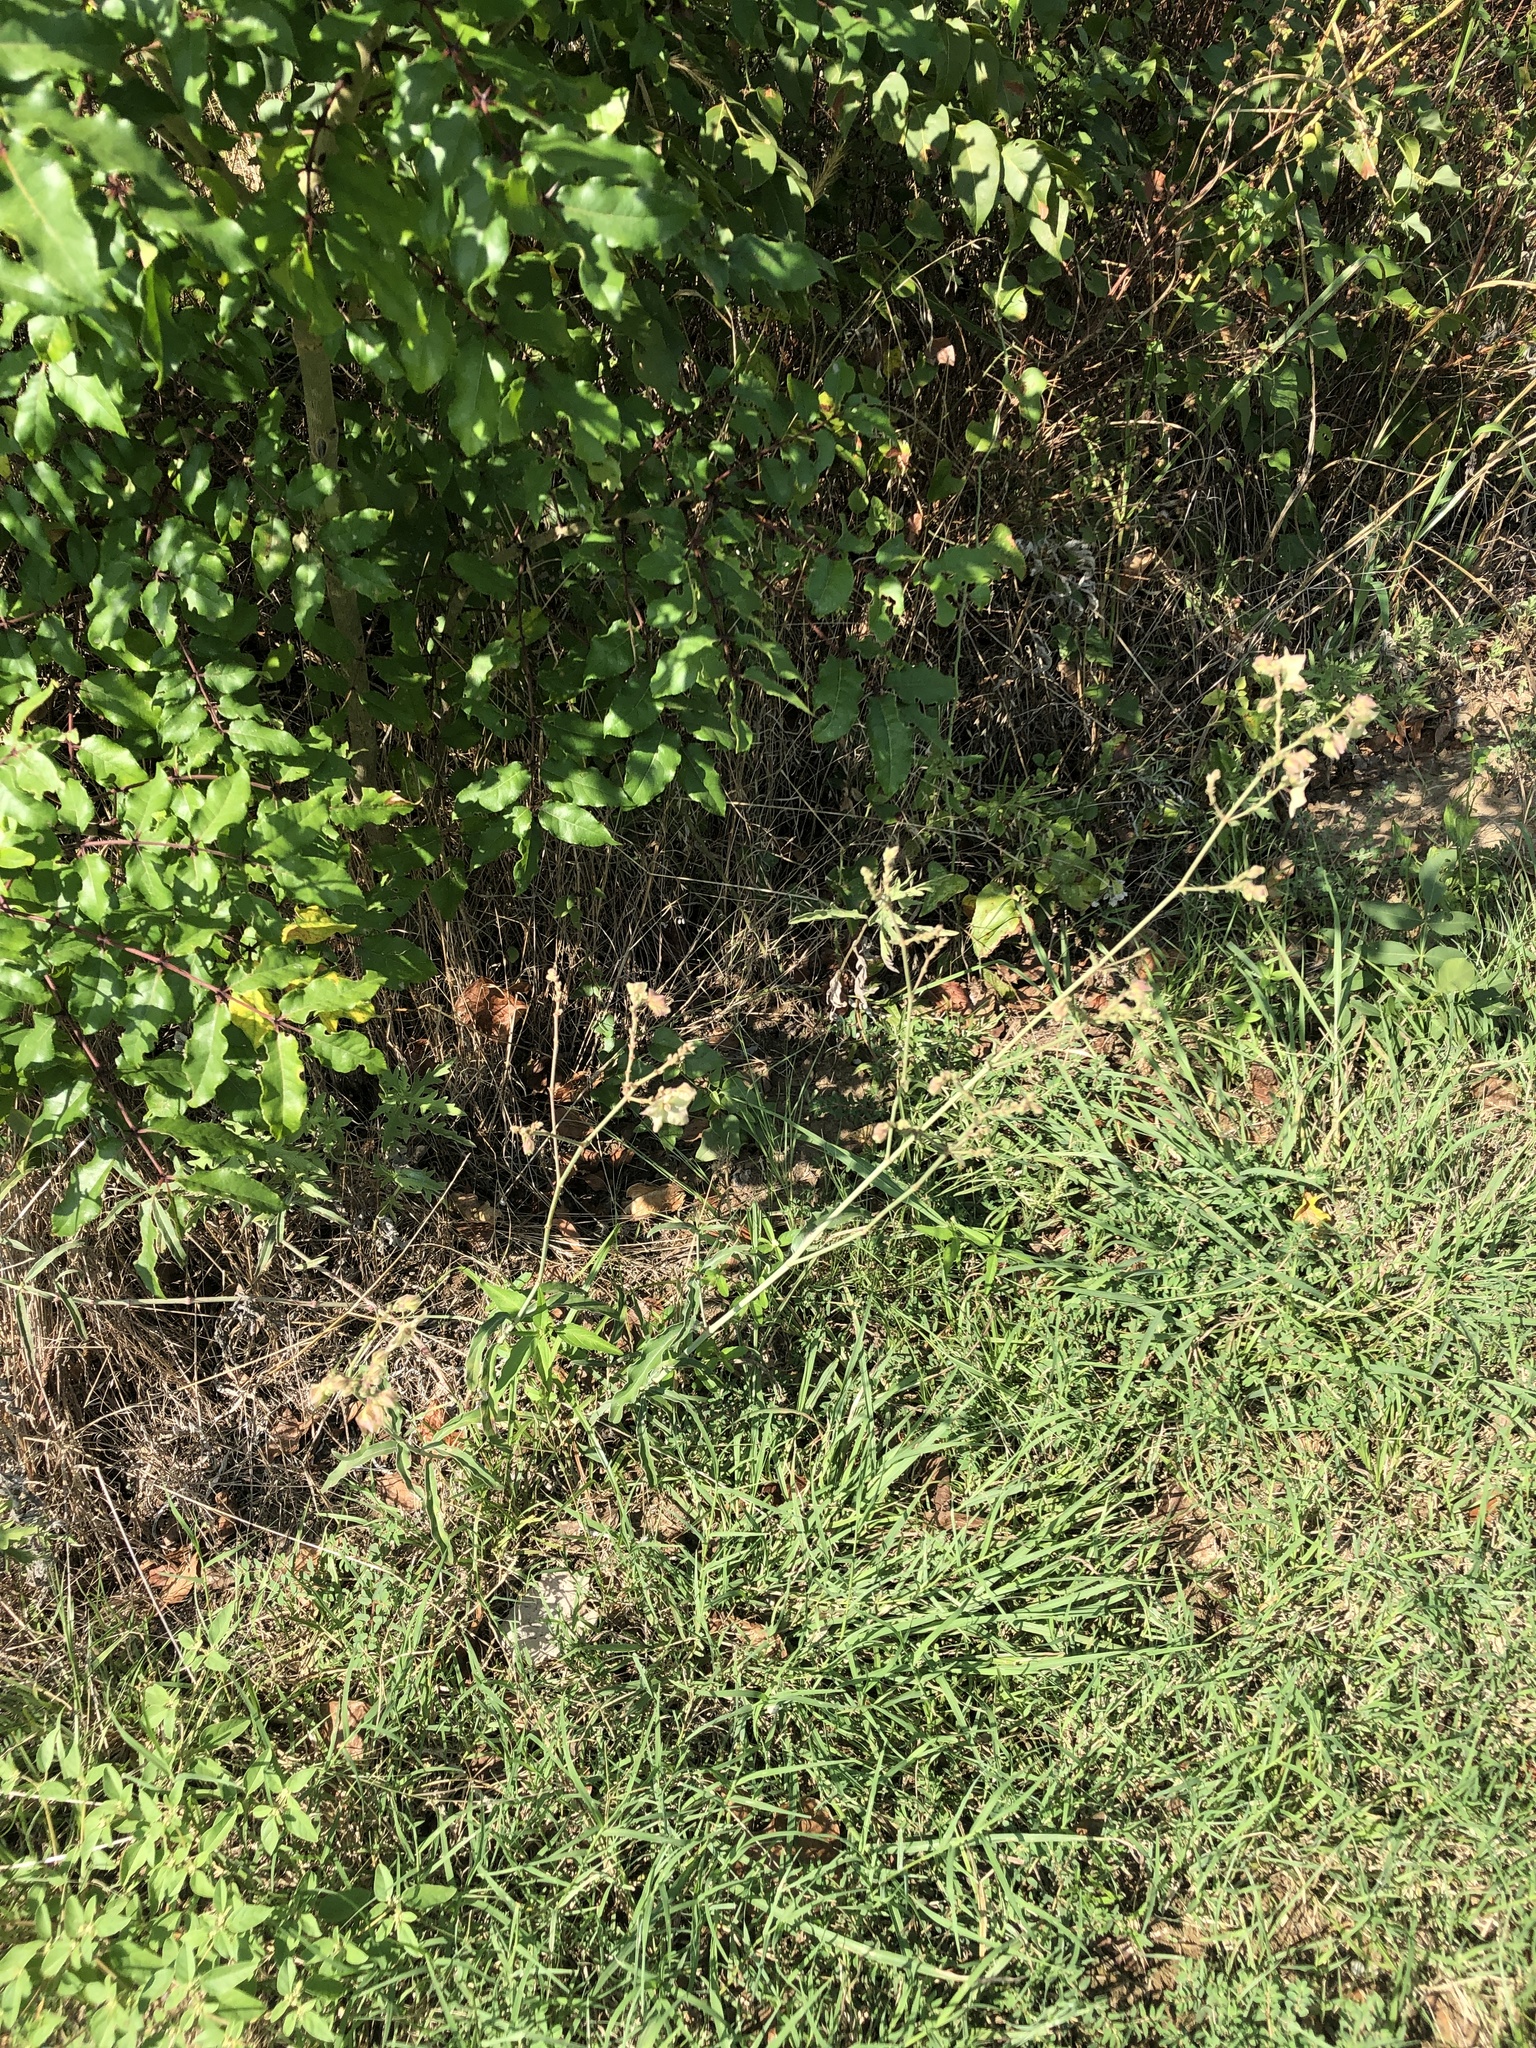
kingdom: Plantae
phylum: Tracheophyta
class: Magnoliopsida
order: Caryophyllales
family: Nyctaginaceae
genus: Mirabilis
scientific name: Mirabilis albida
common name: Hairy four-o'clock
